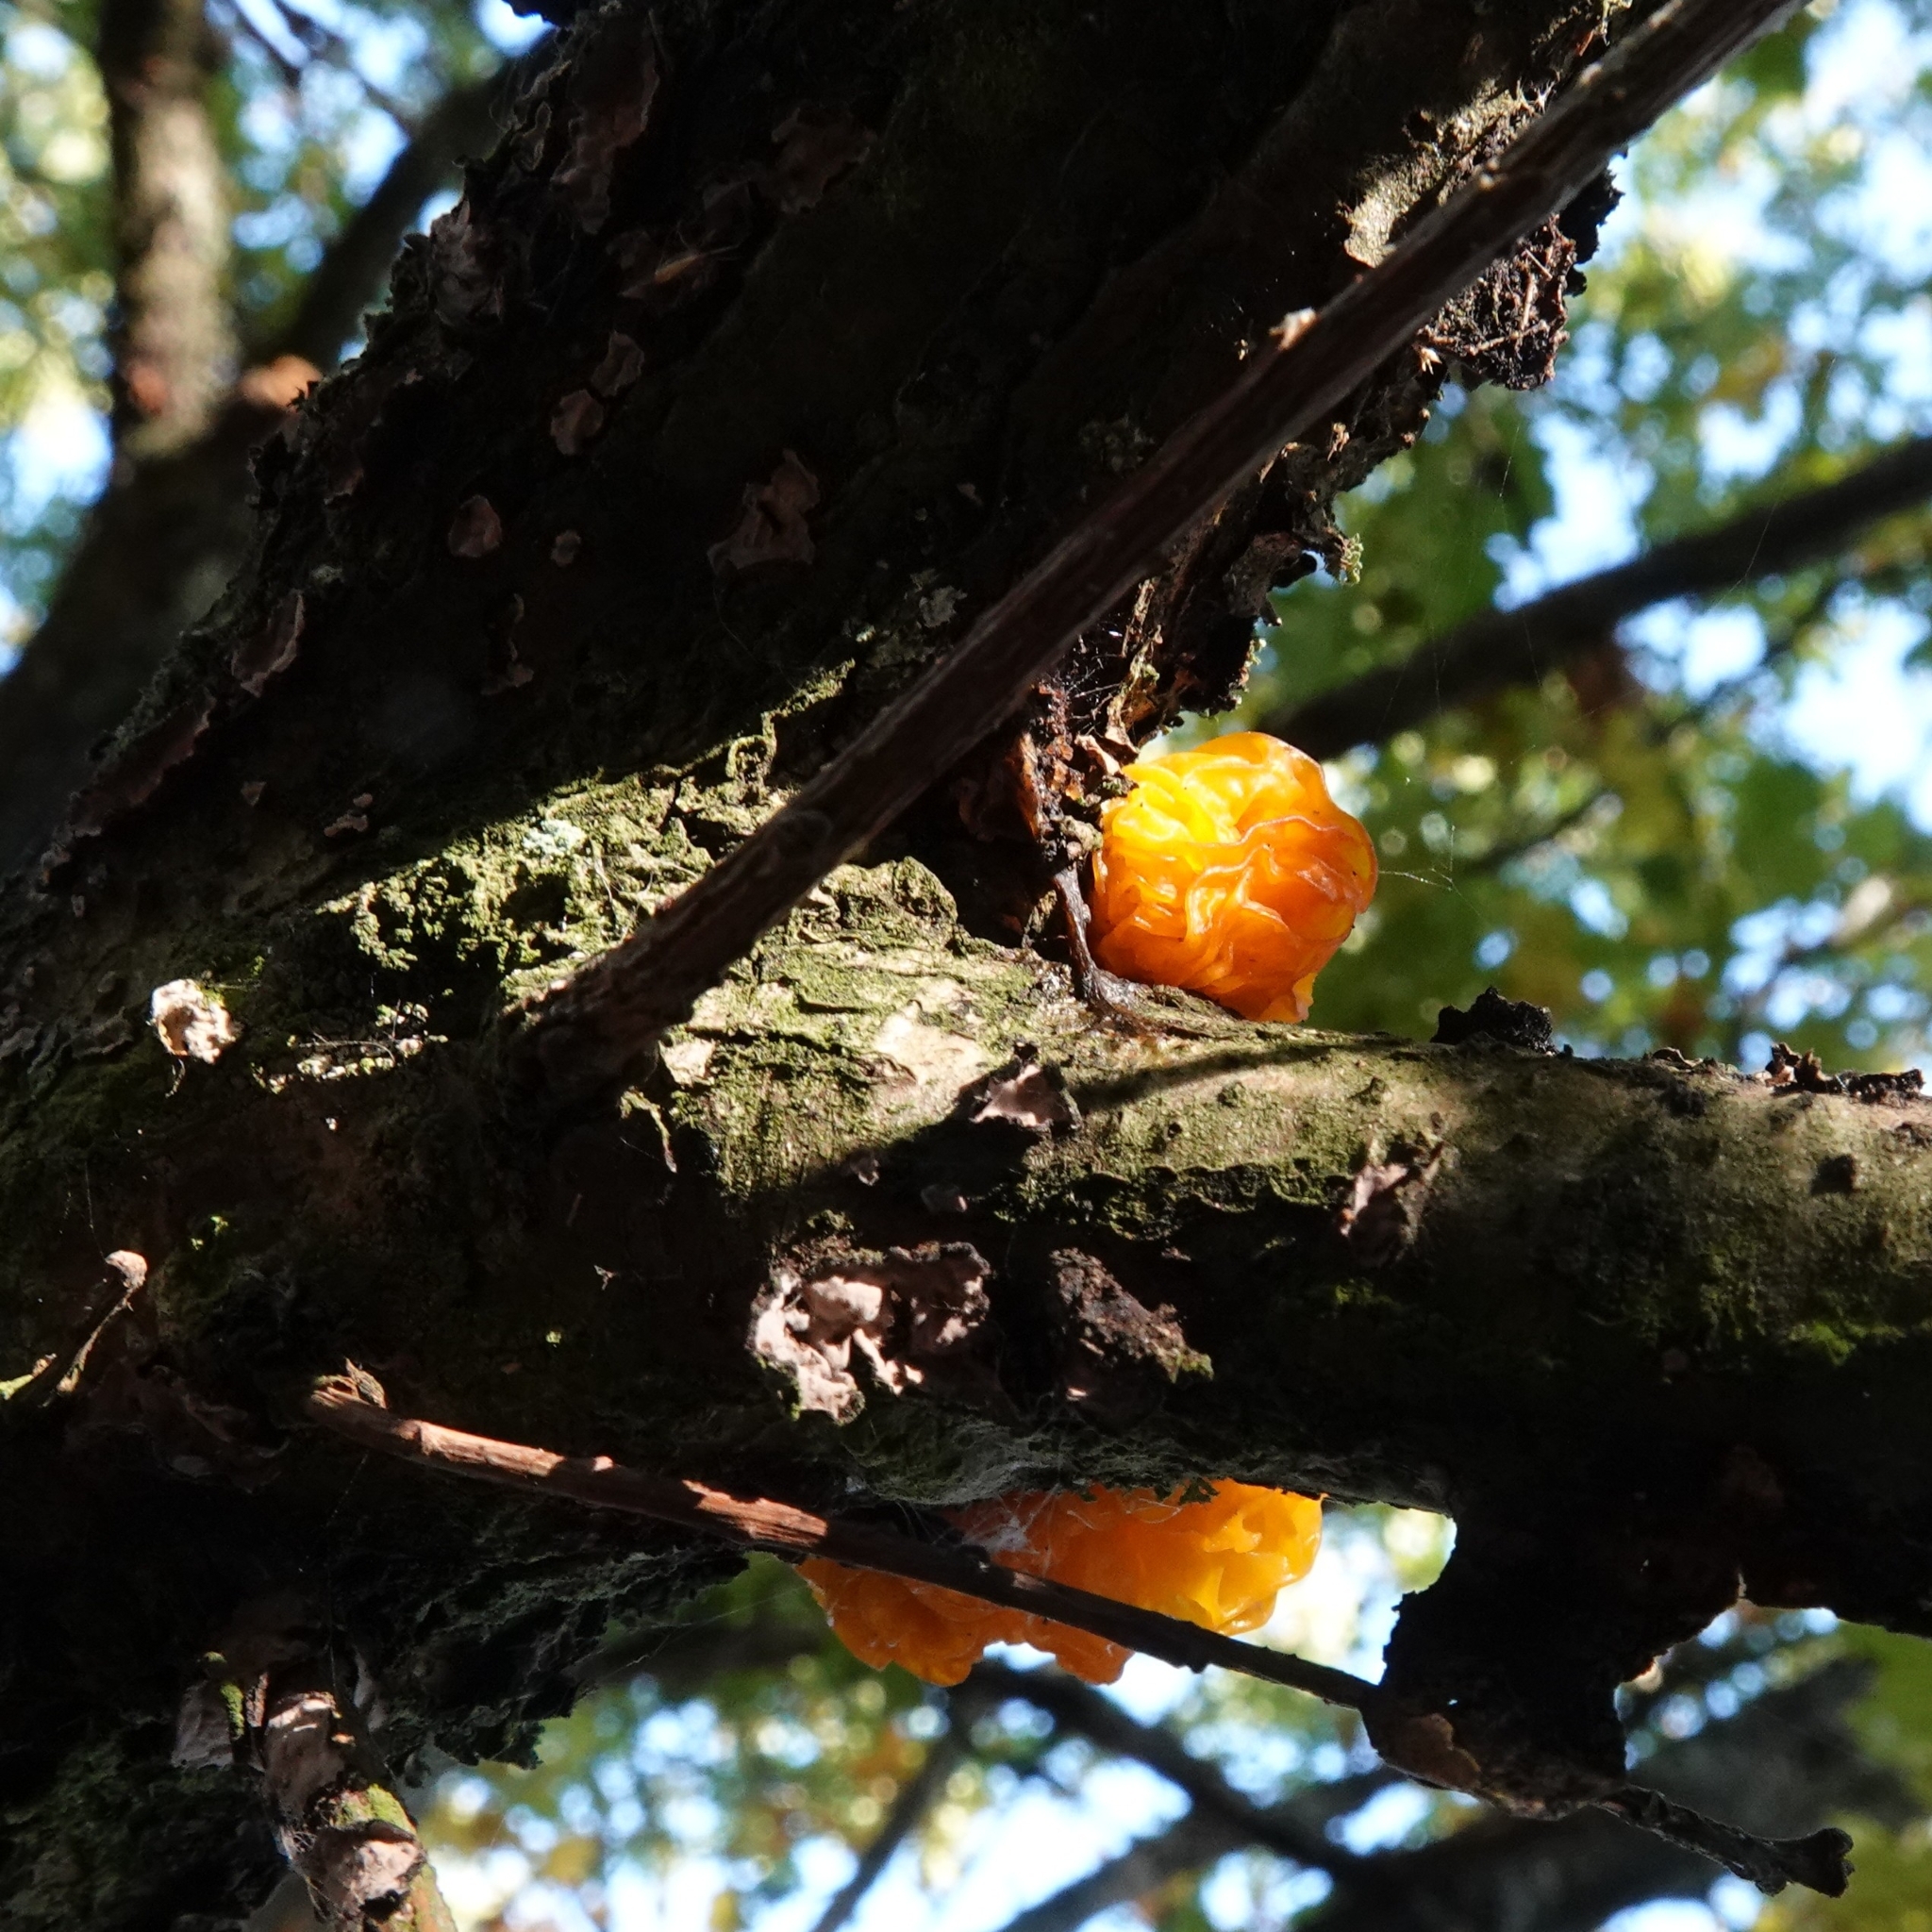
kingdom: Fungi
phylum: Basidiomycota
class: Tremellomycetes
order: Tremellales
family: Tremellaceae
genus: Tremella
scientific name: Tremella mesenterica
